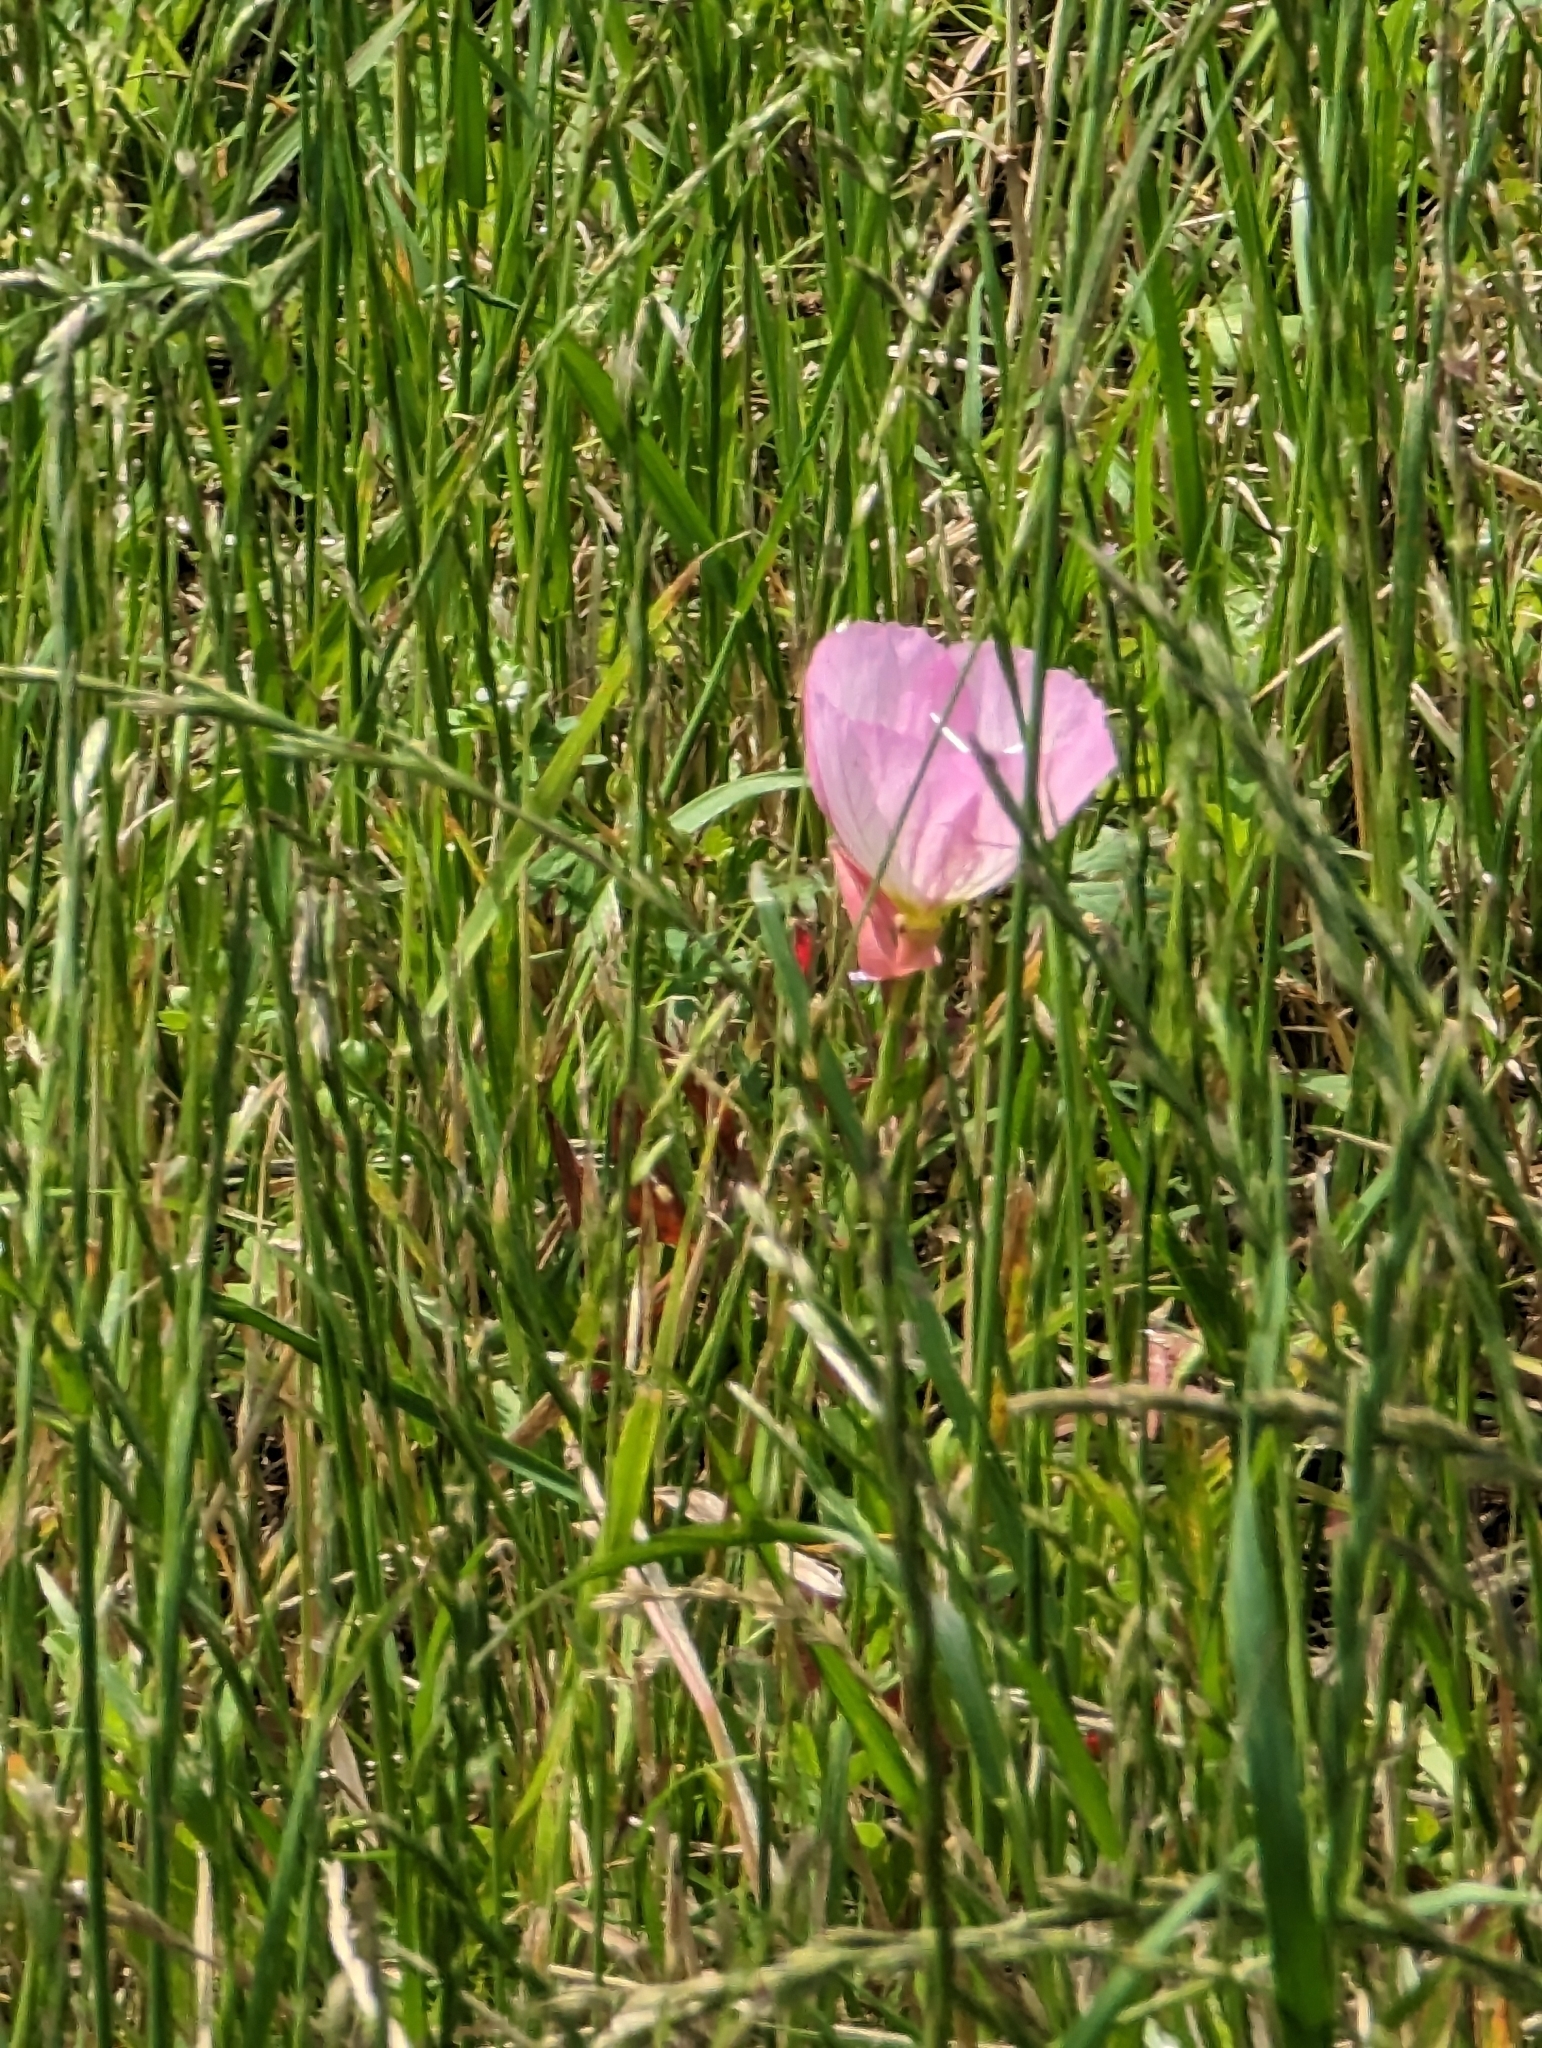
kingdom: Plantae
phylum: Tracheophyta
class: Magnoliopsida
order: Myrtales
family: Onagraceae
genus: Oenothera
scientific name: Oenothera speciosa
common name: White evening-primrose
